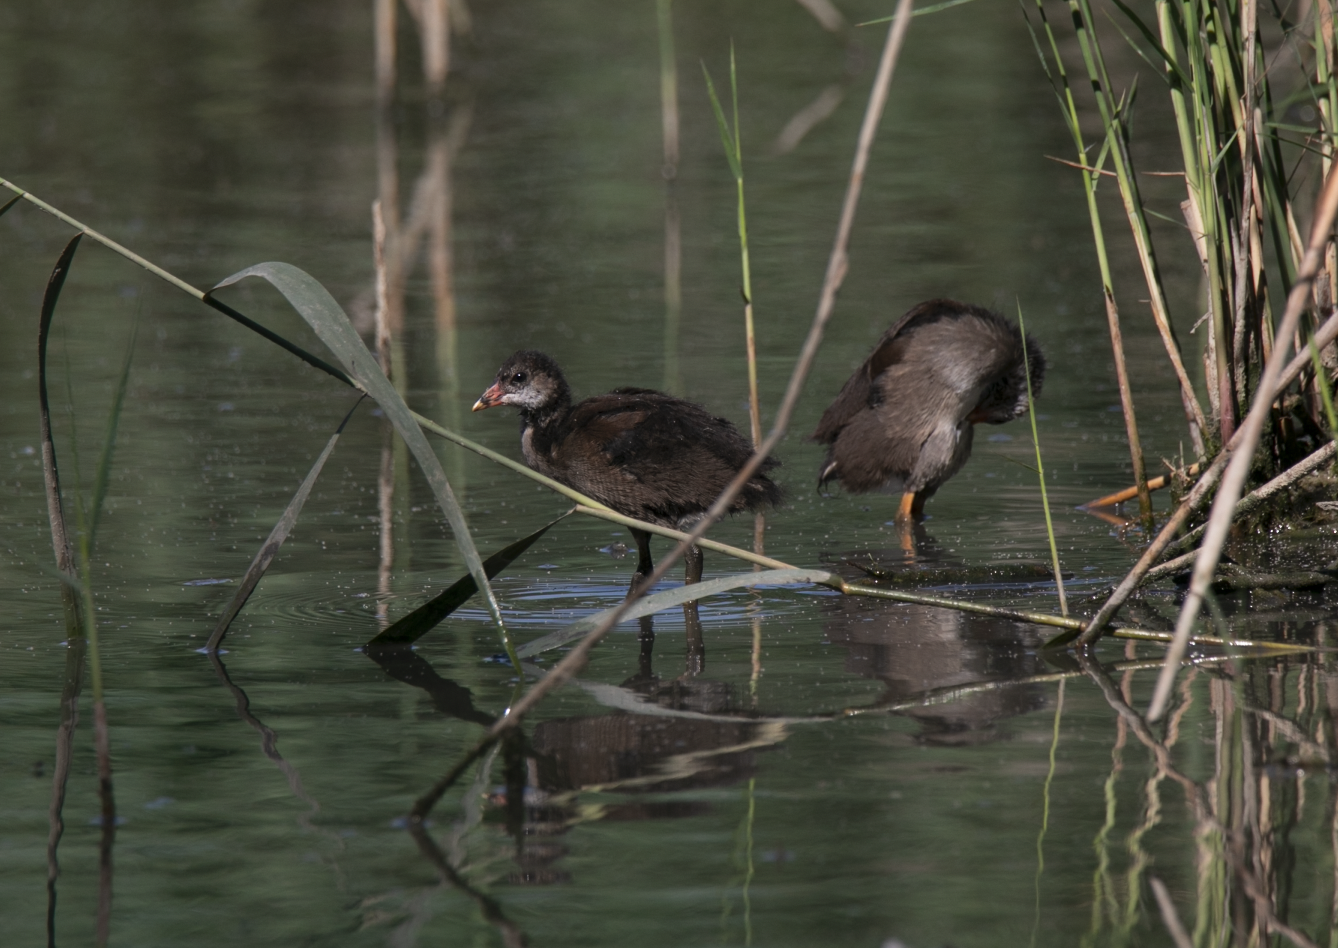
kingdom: Animalia
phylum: Chordata
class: Aves
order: Gruiformes
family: Rallidae
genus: Gallinula
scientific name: Gallinula chloropus
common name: Common moorhen
